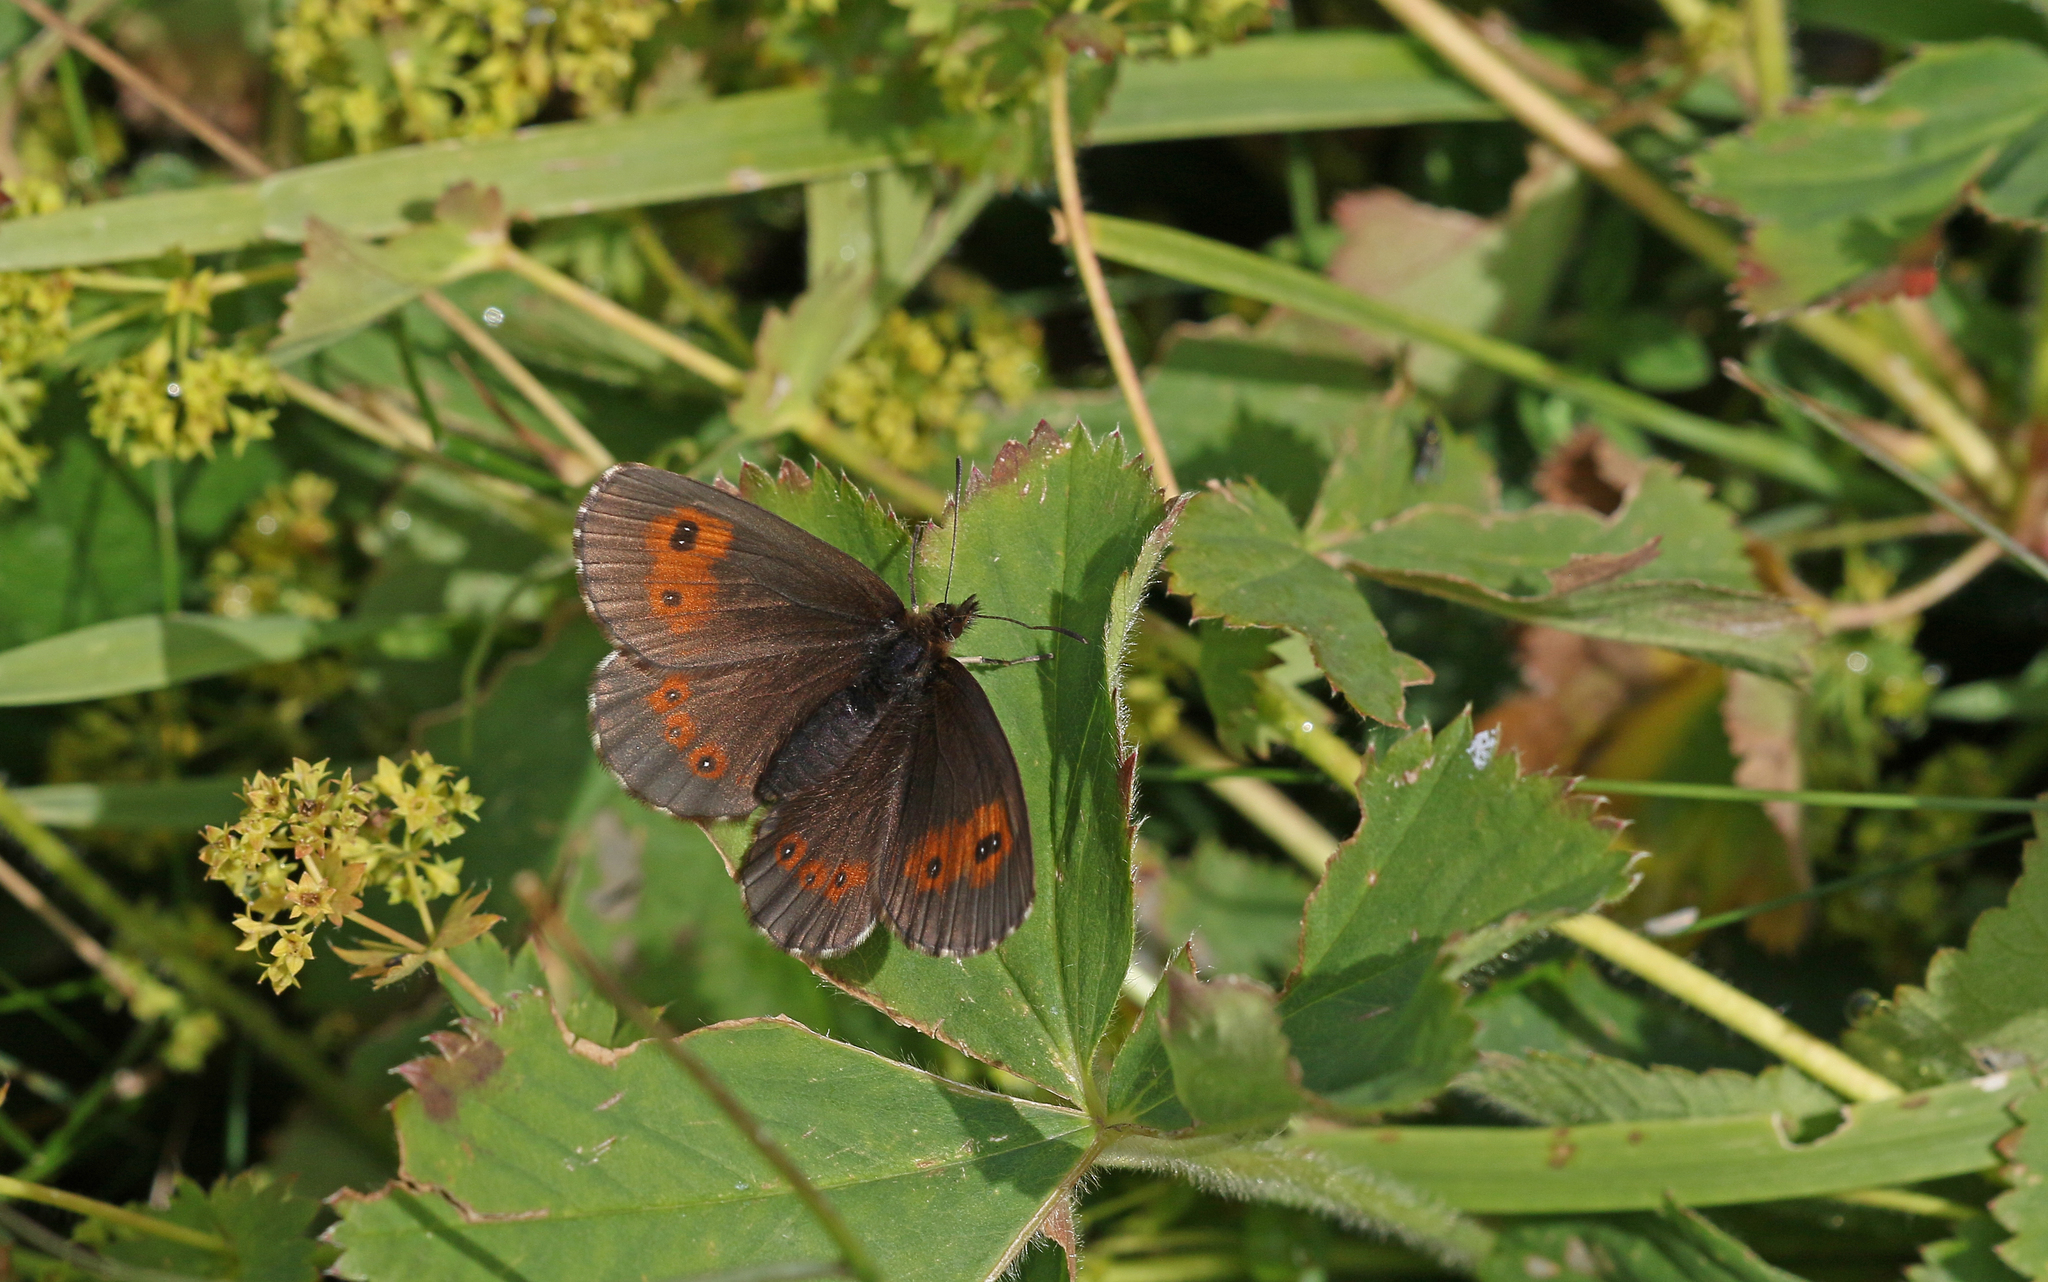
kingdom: Animalia
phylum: Arthropoda
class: Insecta
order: Lepidoptera
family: Nymphalidae
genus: Erebia
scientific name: Erebia euryale
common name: Large ringlet
